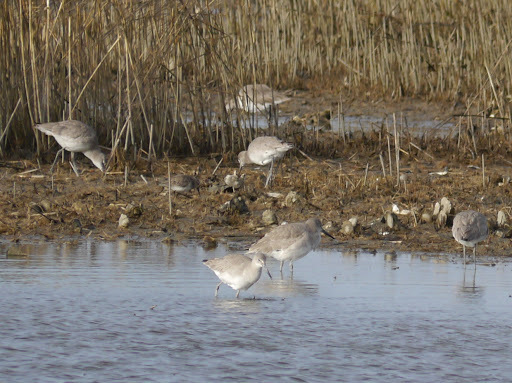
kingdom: Animalia
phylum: Chordata
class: Aves
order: Charadriiformes
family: Scolopacidae
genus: Tringa
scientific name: Tringa semipalmata
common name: Willet
